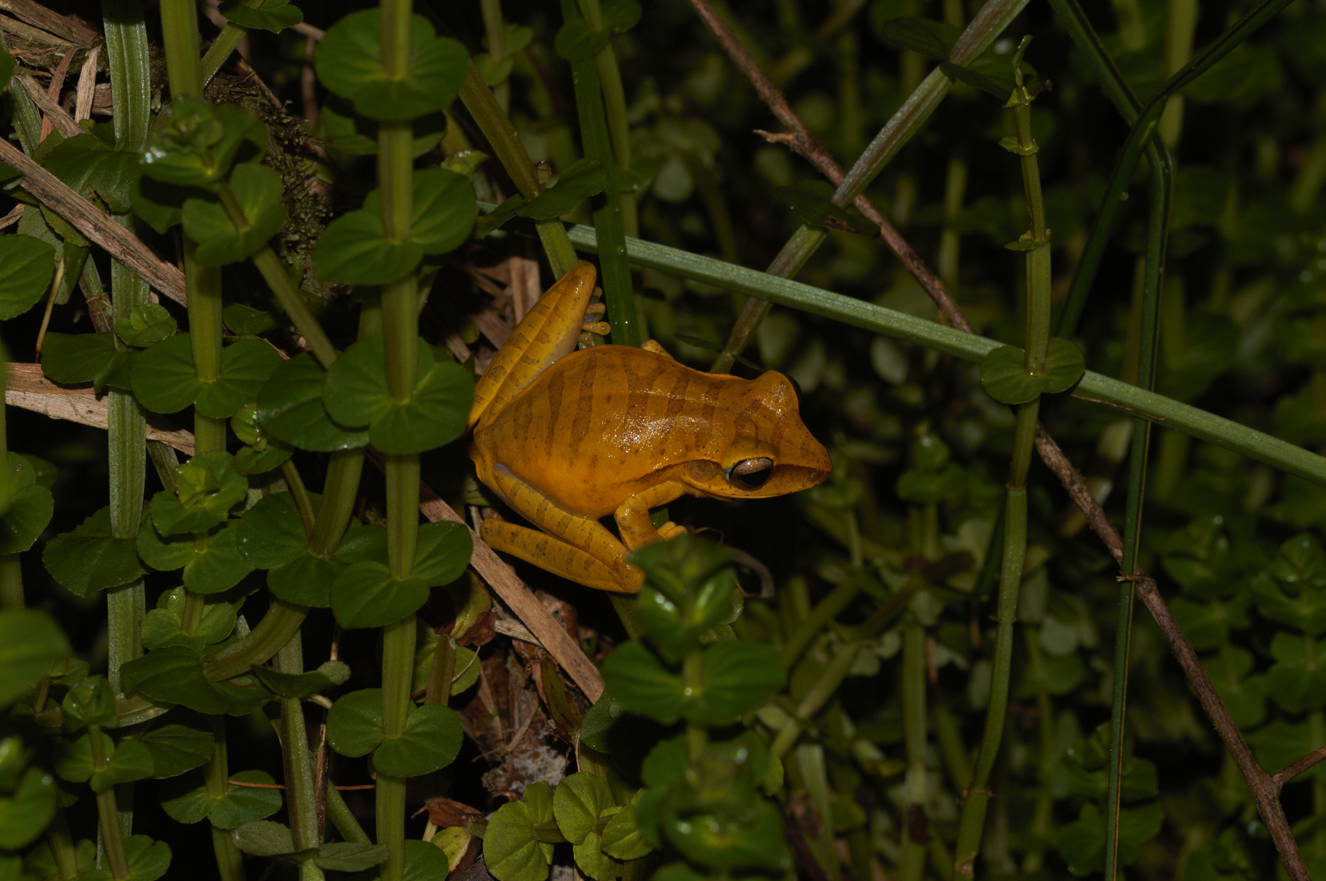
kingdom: Animalia
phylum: Chordata
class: Amphibia
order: Anura
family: Hylidae
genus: Boana
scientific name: Boana multifasciata
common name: Many-banded treefrog
